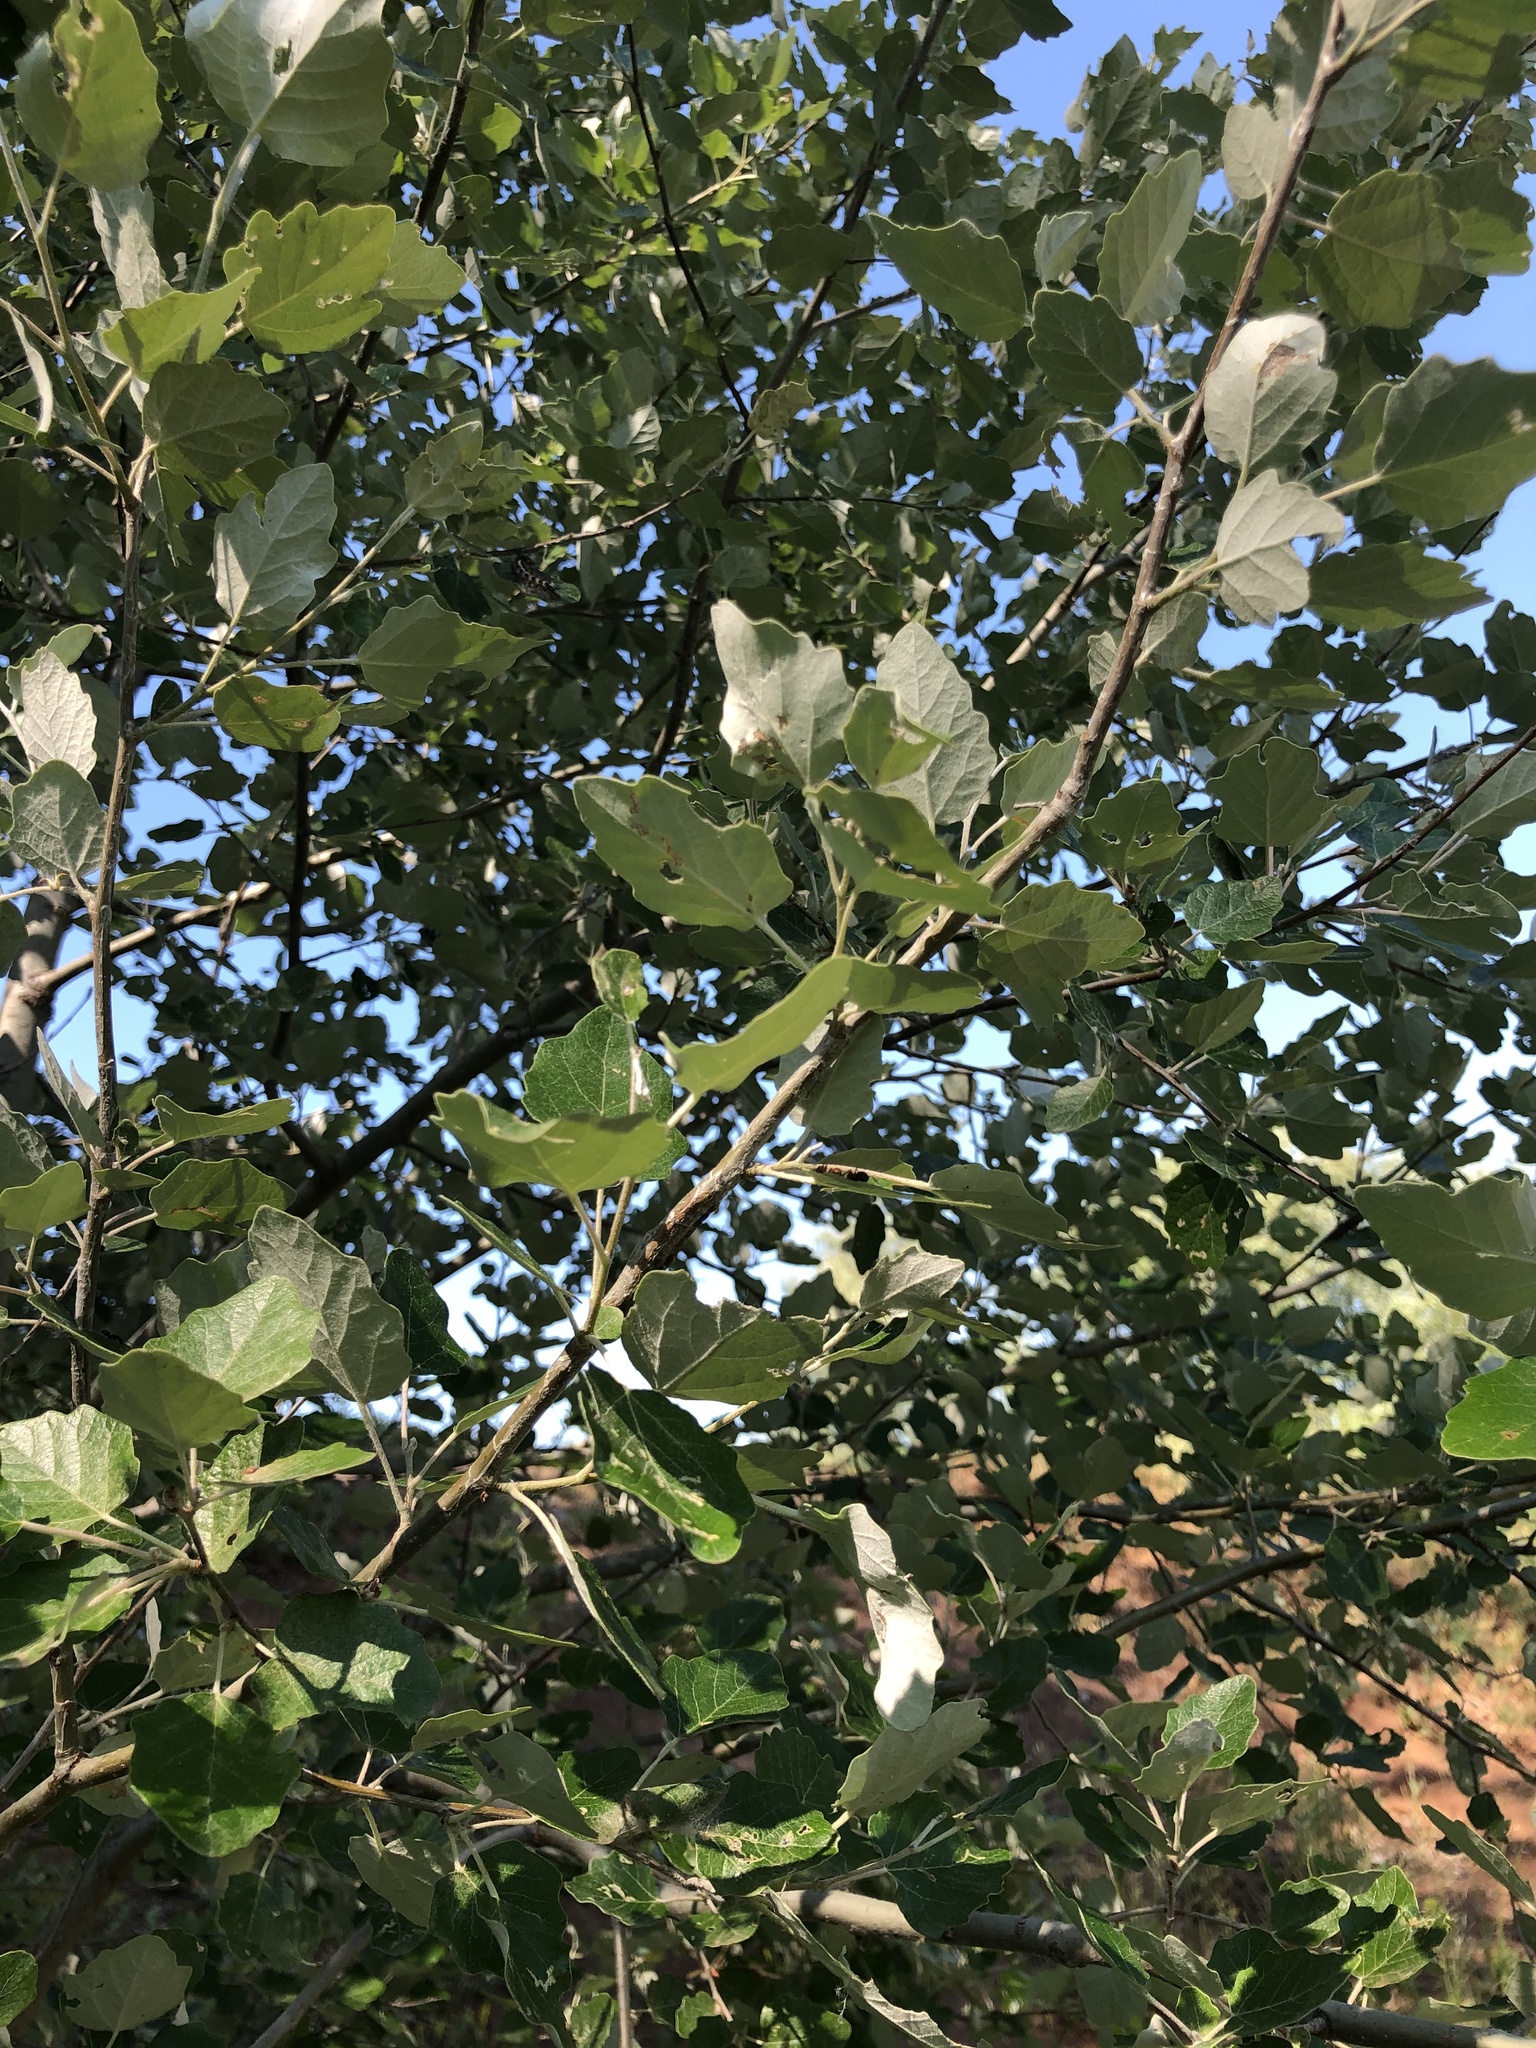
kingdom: Plantae
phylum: Tracheophyta
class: Magnoliopsida
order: Malpighiales
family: Salicaceae
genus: Populus
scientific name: Populus alba
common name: White poplar
